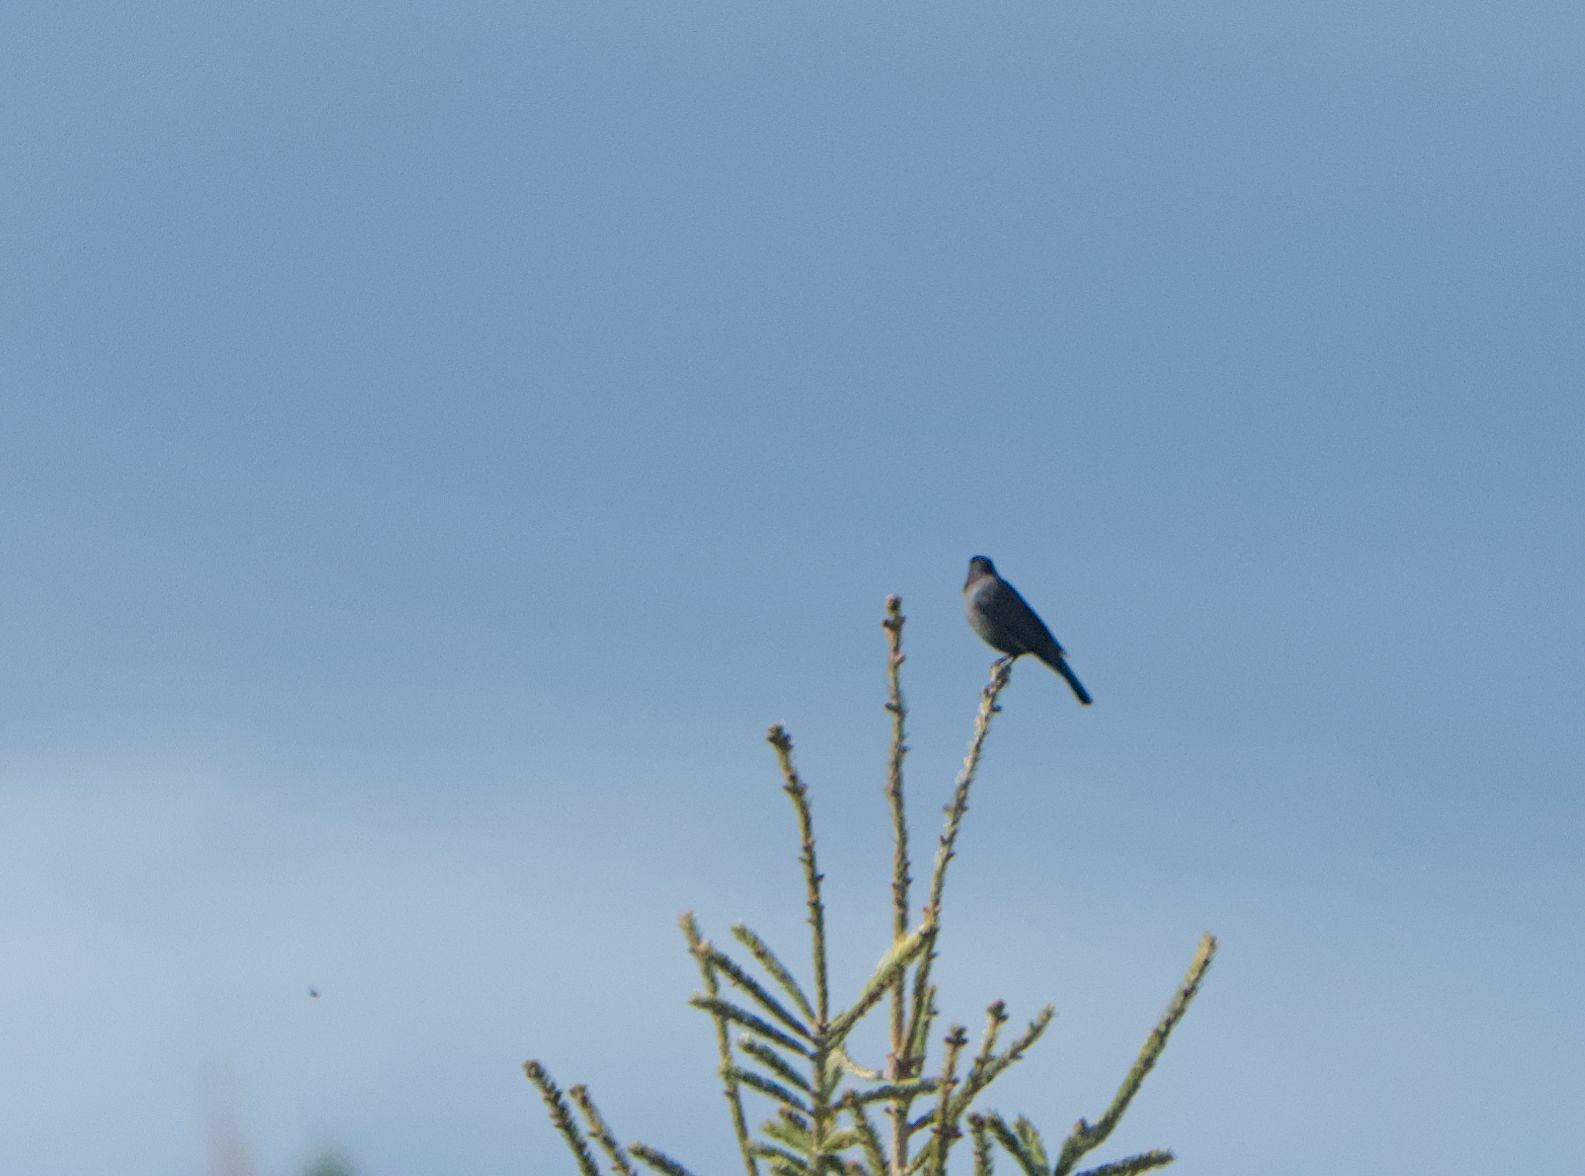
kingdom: Animalia
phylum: Chordata
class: Aves
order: Passeriformes
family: Icteridae
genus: Quiscalus
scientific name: Quiscalus quiscula
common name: Common grackle
